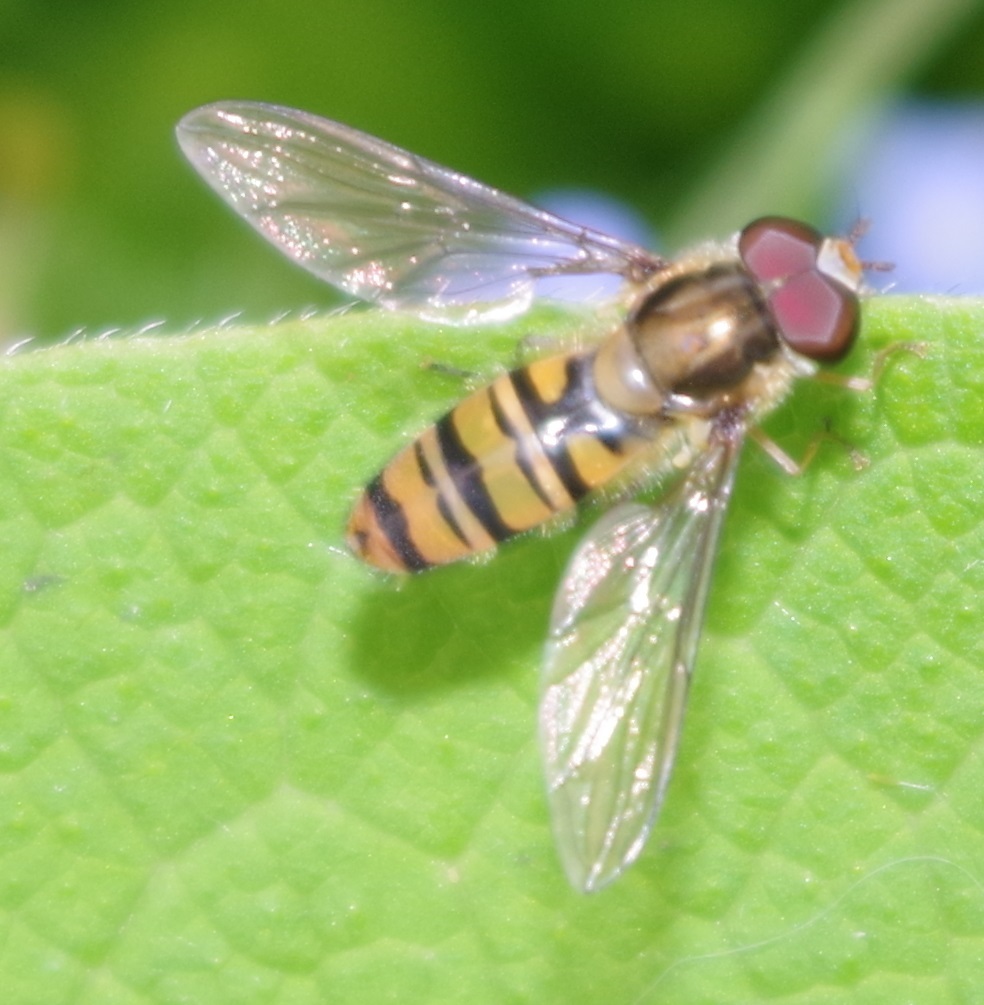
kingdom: Animalia
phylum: Arthropoda
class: Insecta
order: Diptera
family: Syrphidae
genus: Episyrphus
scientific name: Episyrphus balteatus
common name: Marmalade hoverfly
